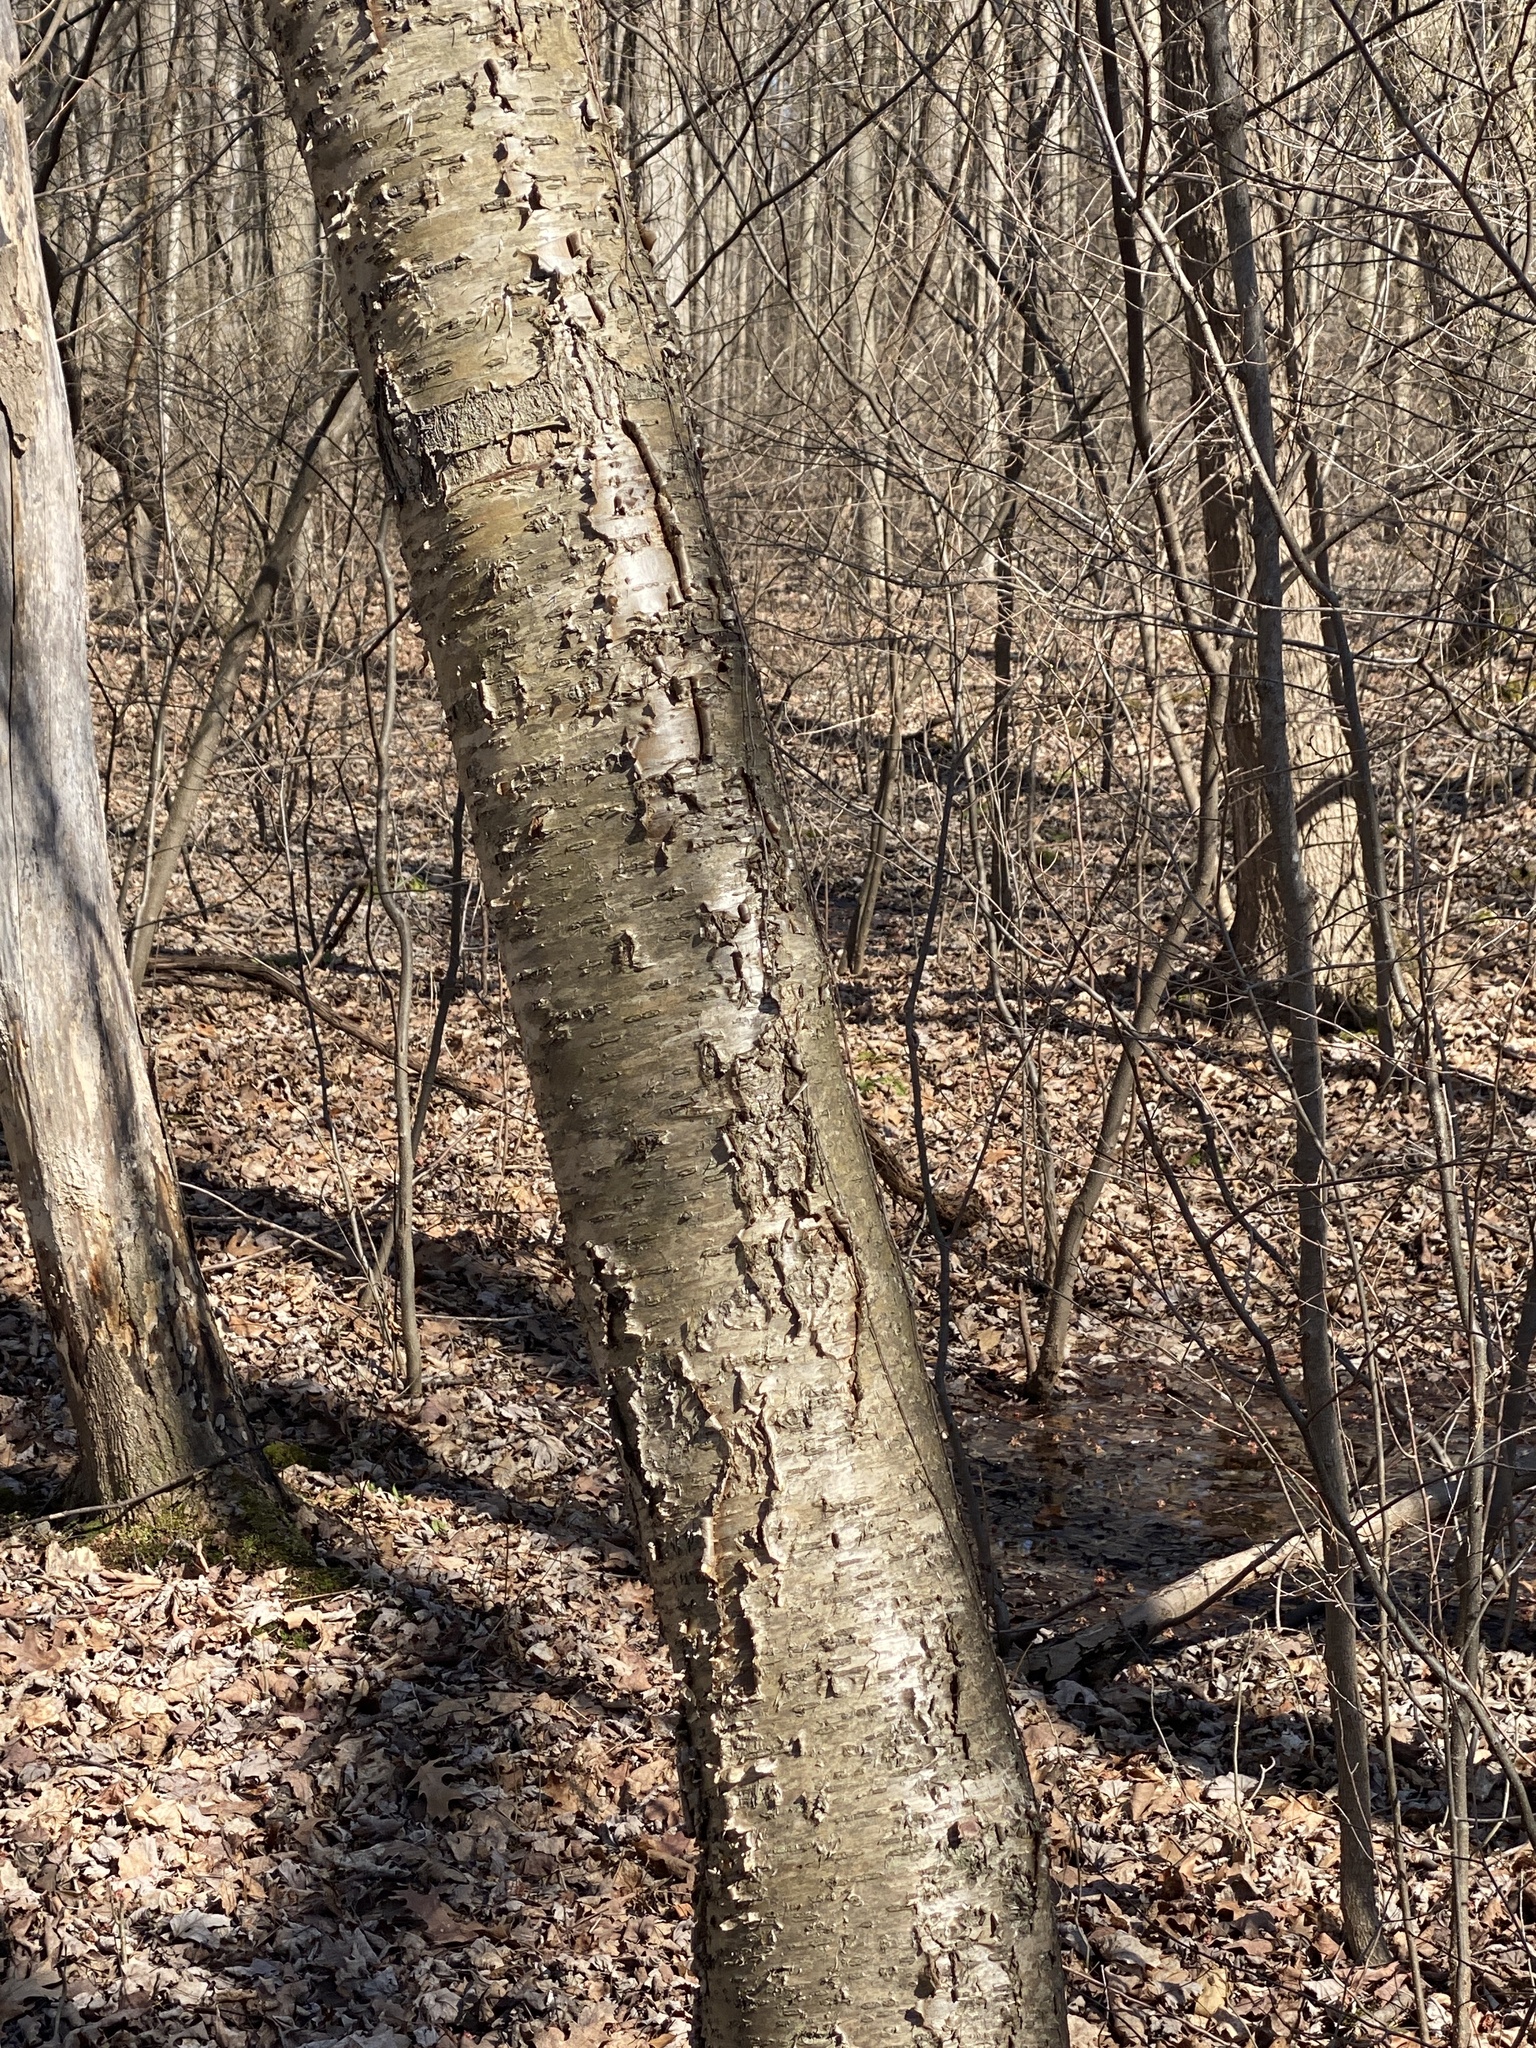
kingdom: Plantae
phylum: Tracheophyta
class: Magnoliopsida
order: Fagales
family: Betulaceae
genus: Betula
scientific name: Betula alleghaniensis
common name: Yellow birch
